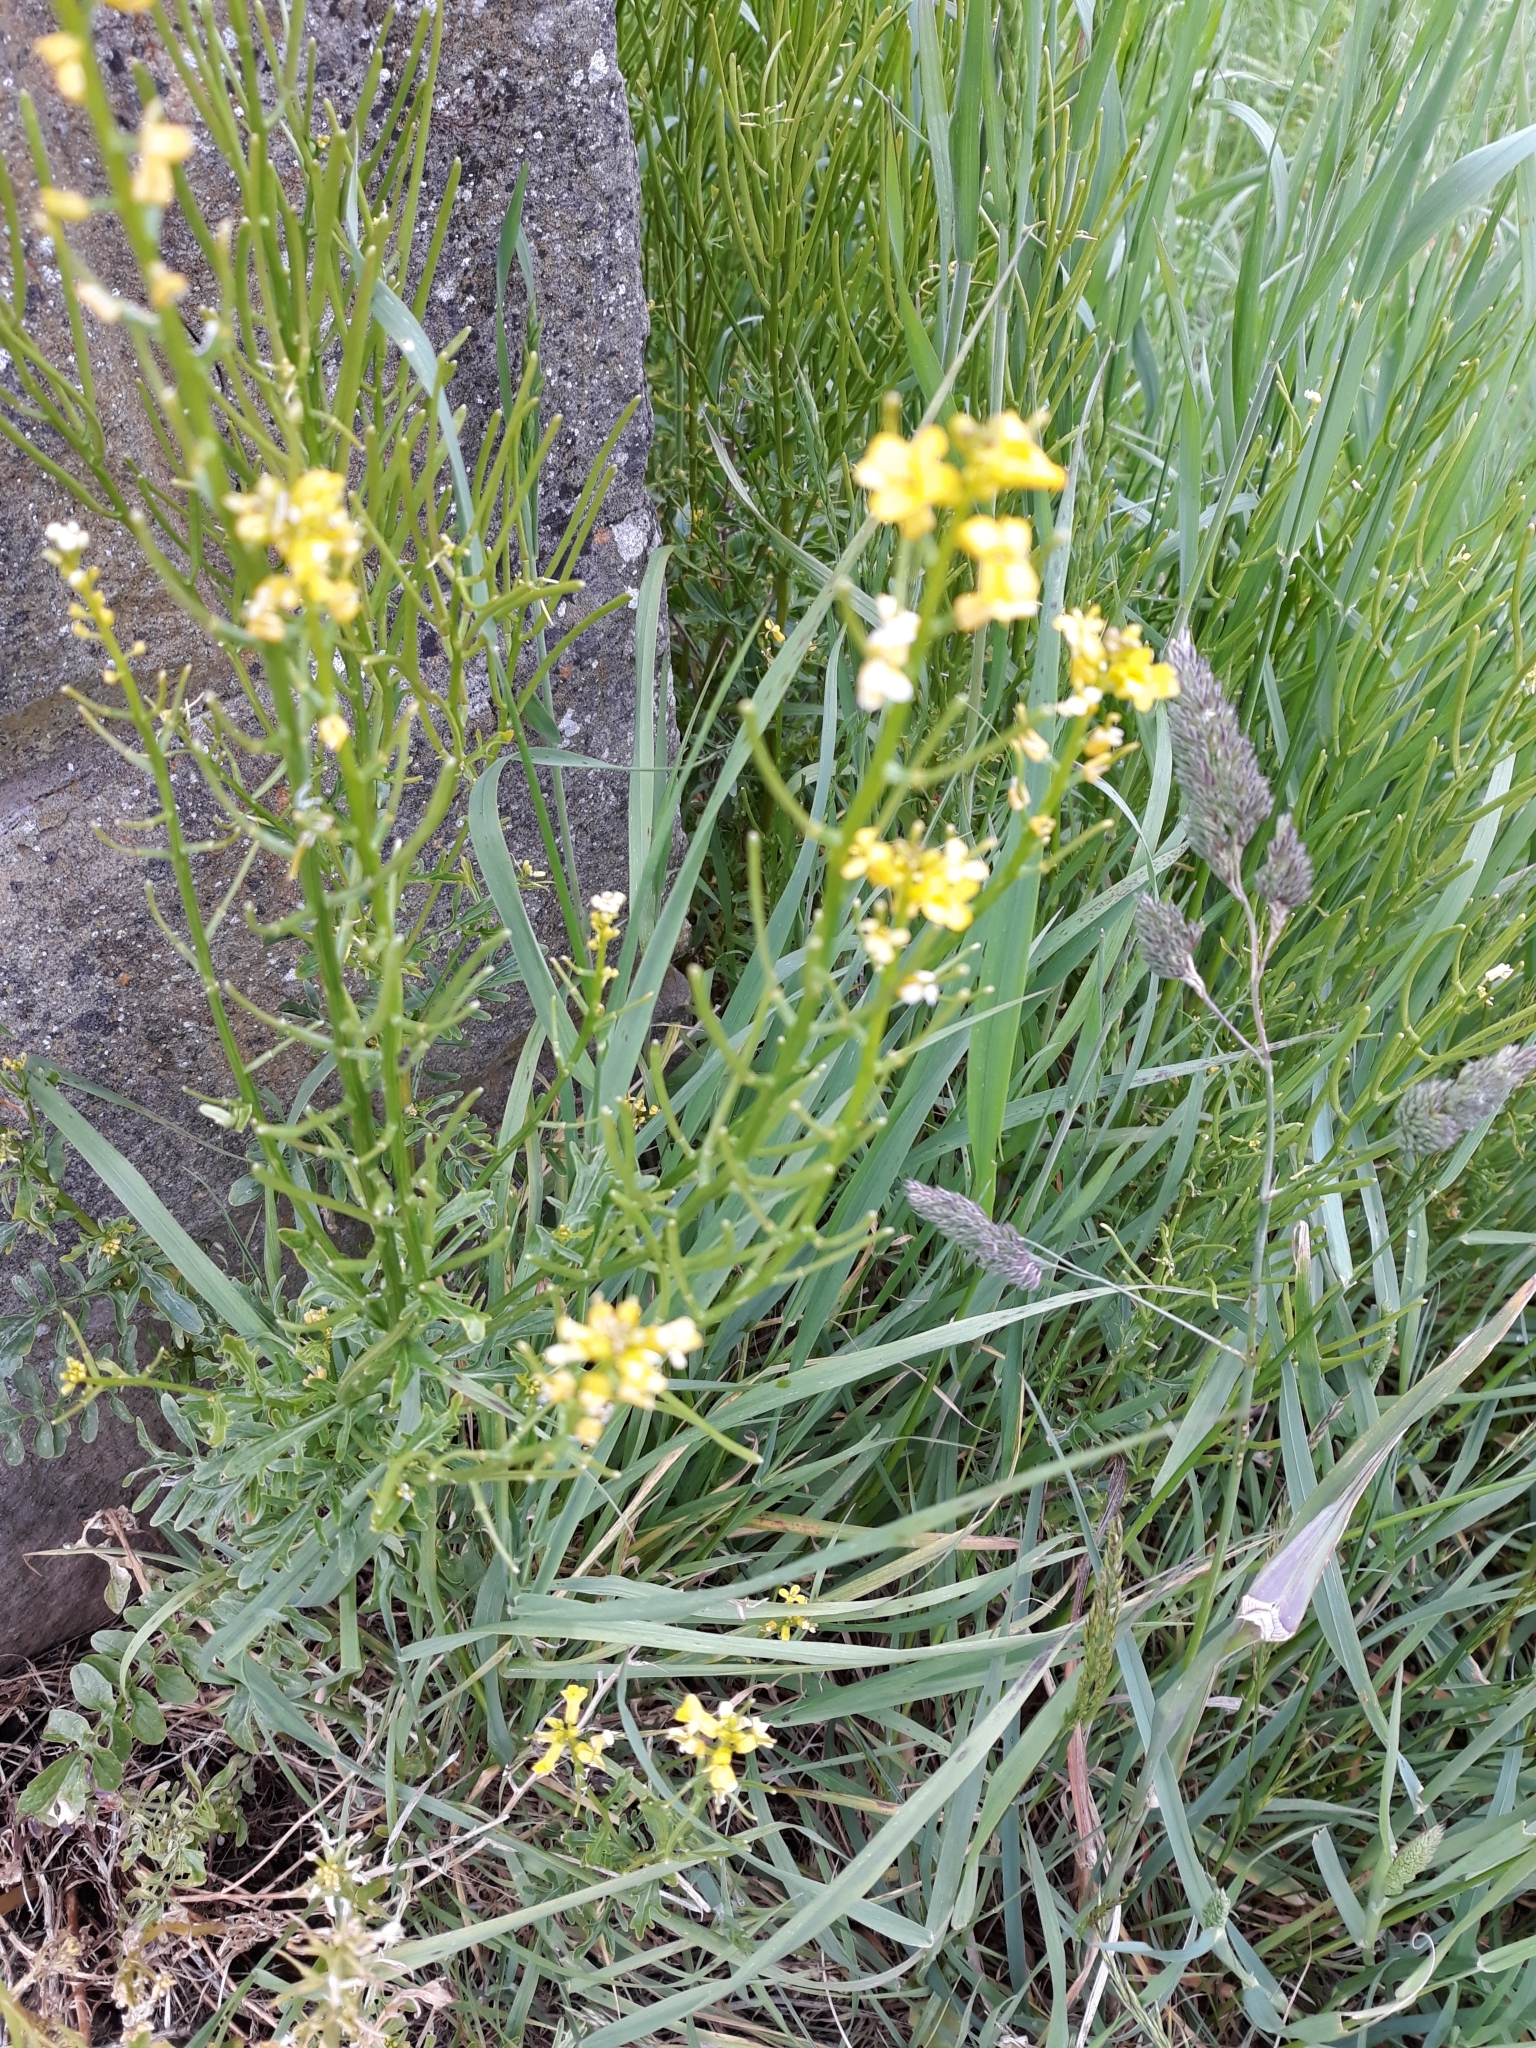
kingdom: Plantae
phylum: Tracheophyta
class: Magnoliopsida
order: Brassicales
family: Brassicaceae
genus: Barbarea
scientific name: Barbarea vulgaris
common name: Cressy-greens
